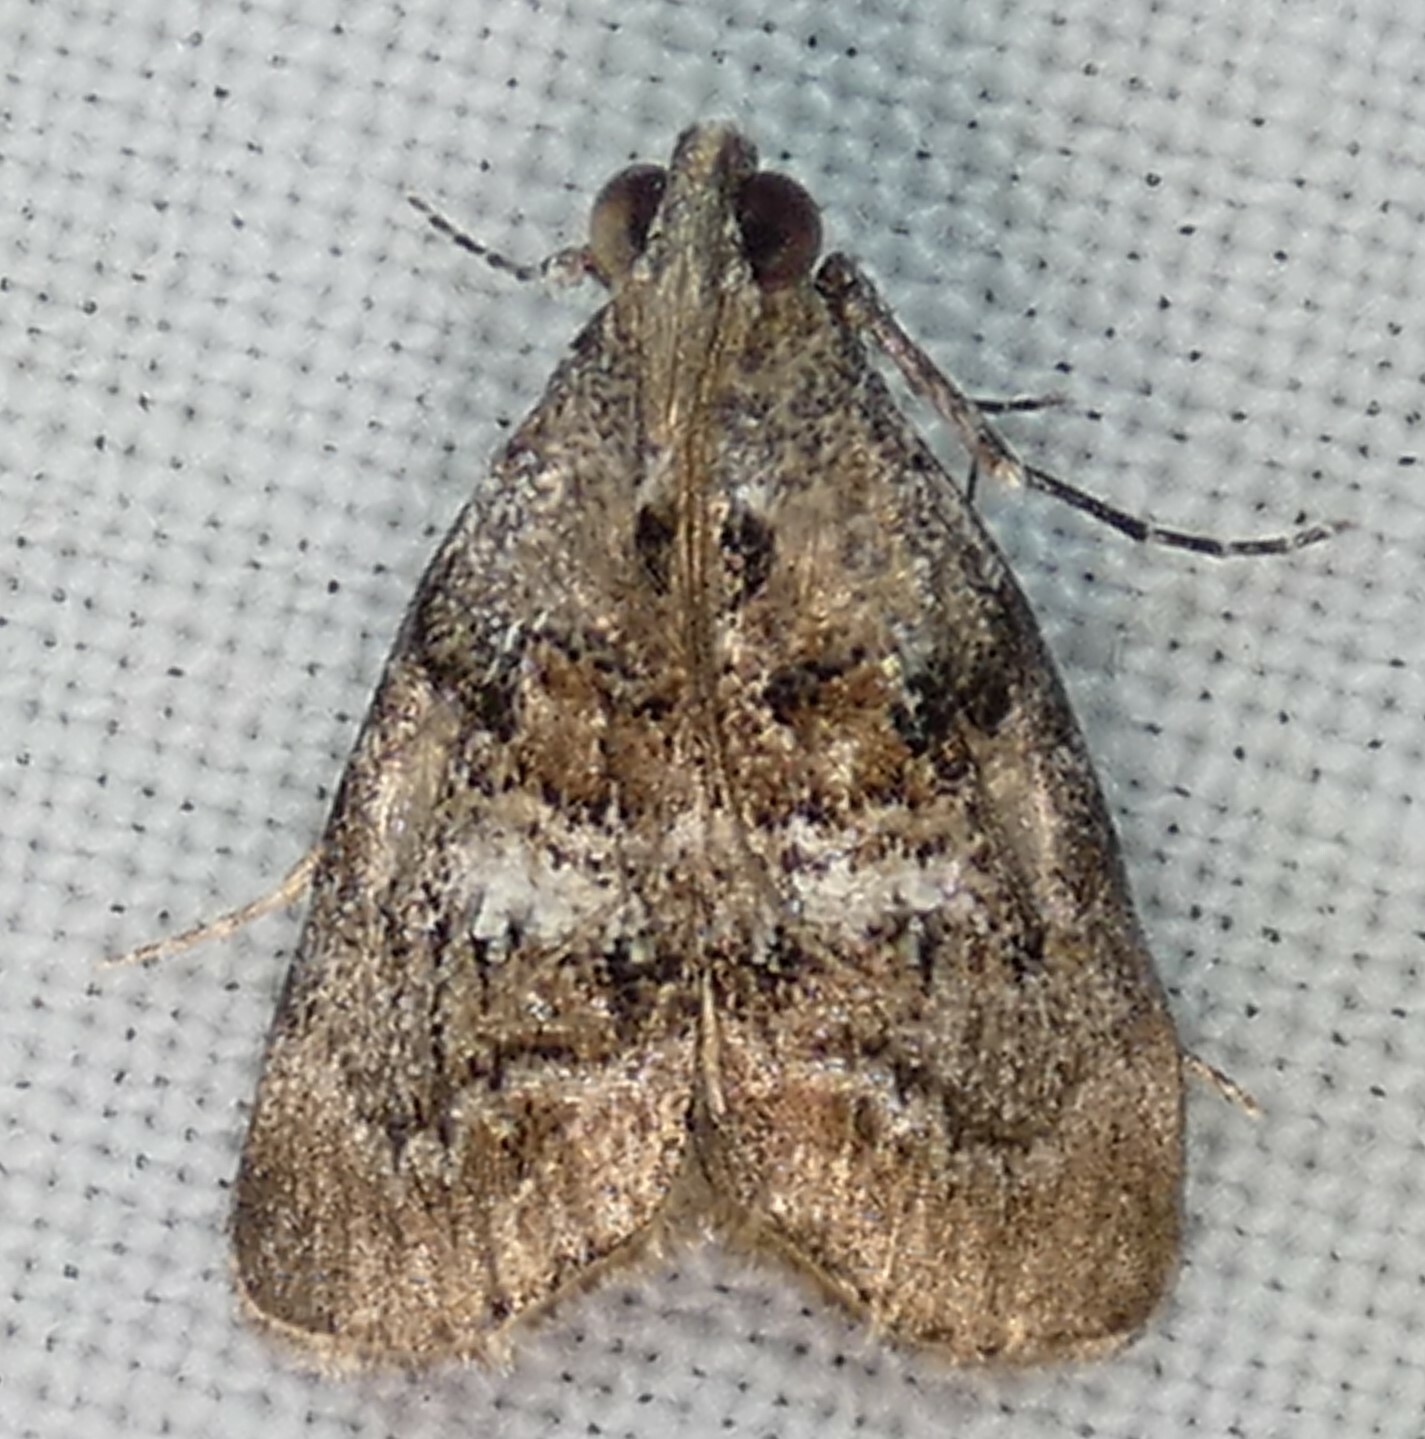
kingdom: Animalia
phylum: Arthropoda
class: Insecta
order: Lepidoptera
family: Pyralidae
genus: Pococera
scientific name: Pococera asperatella
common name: Maple webworm moth
